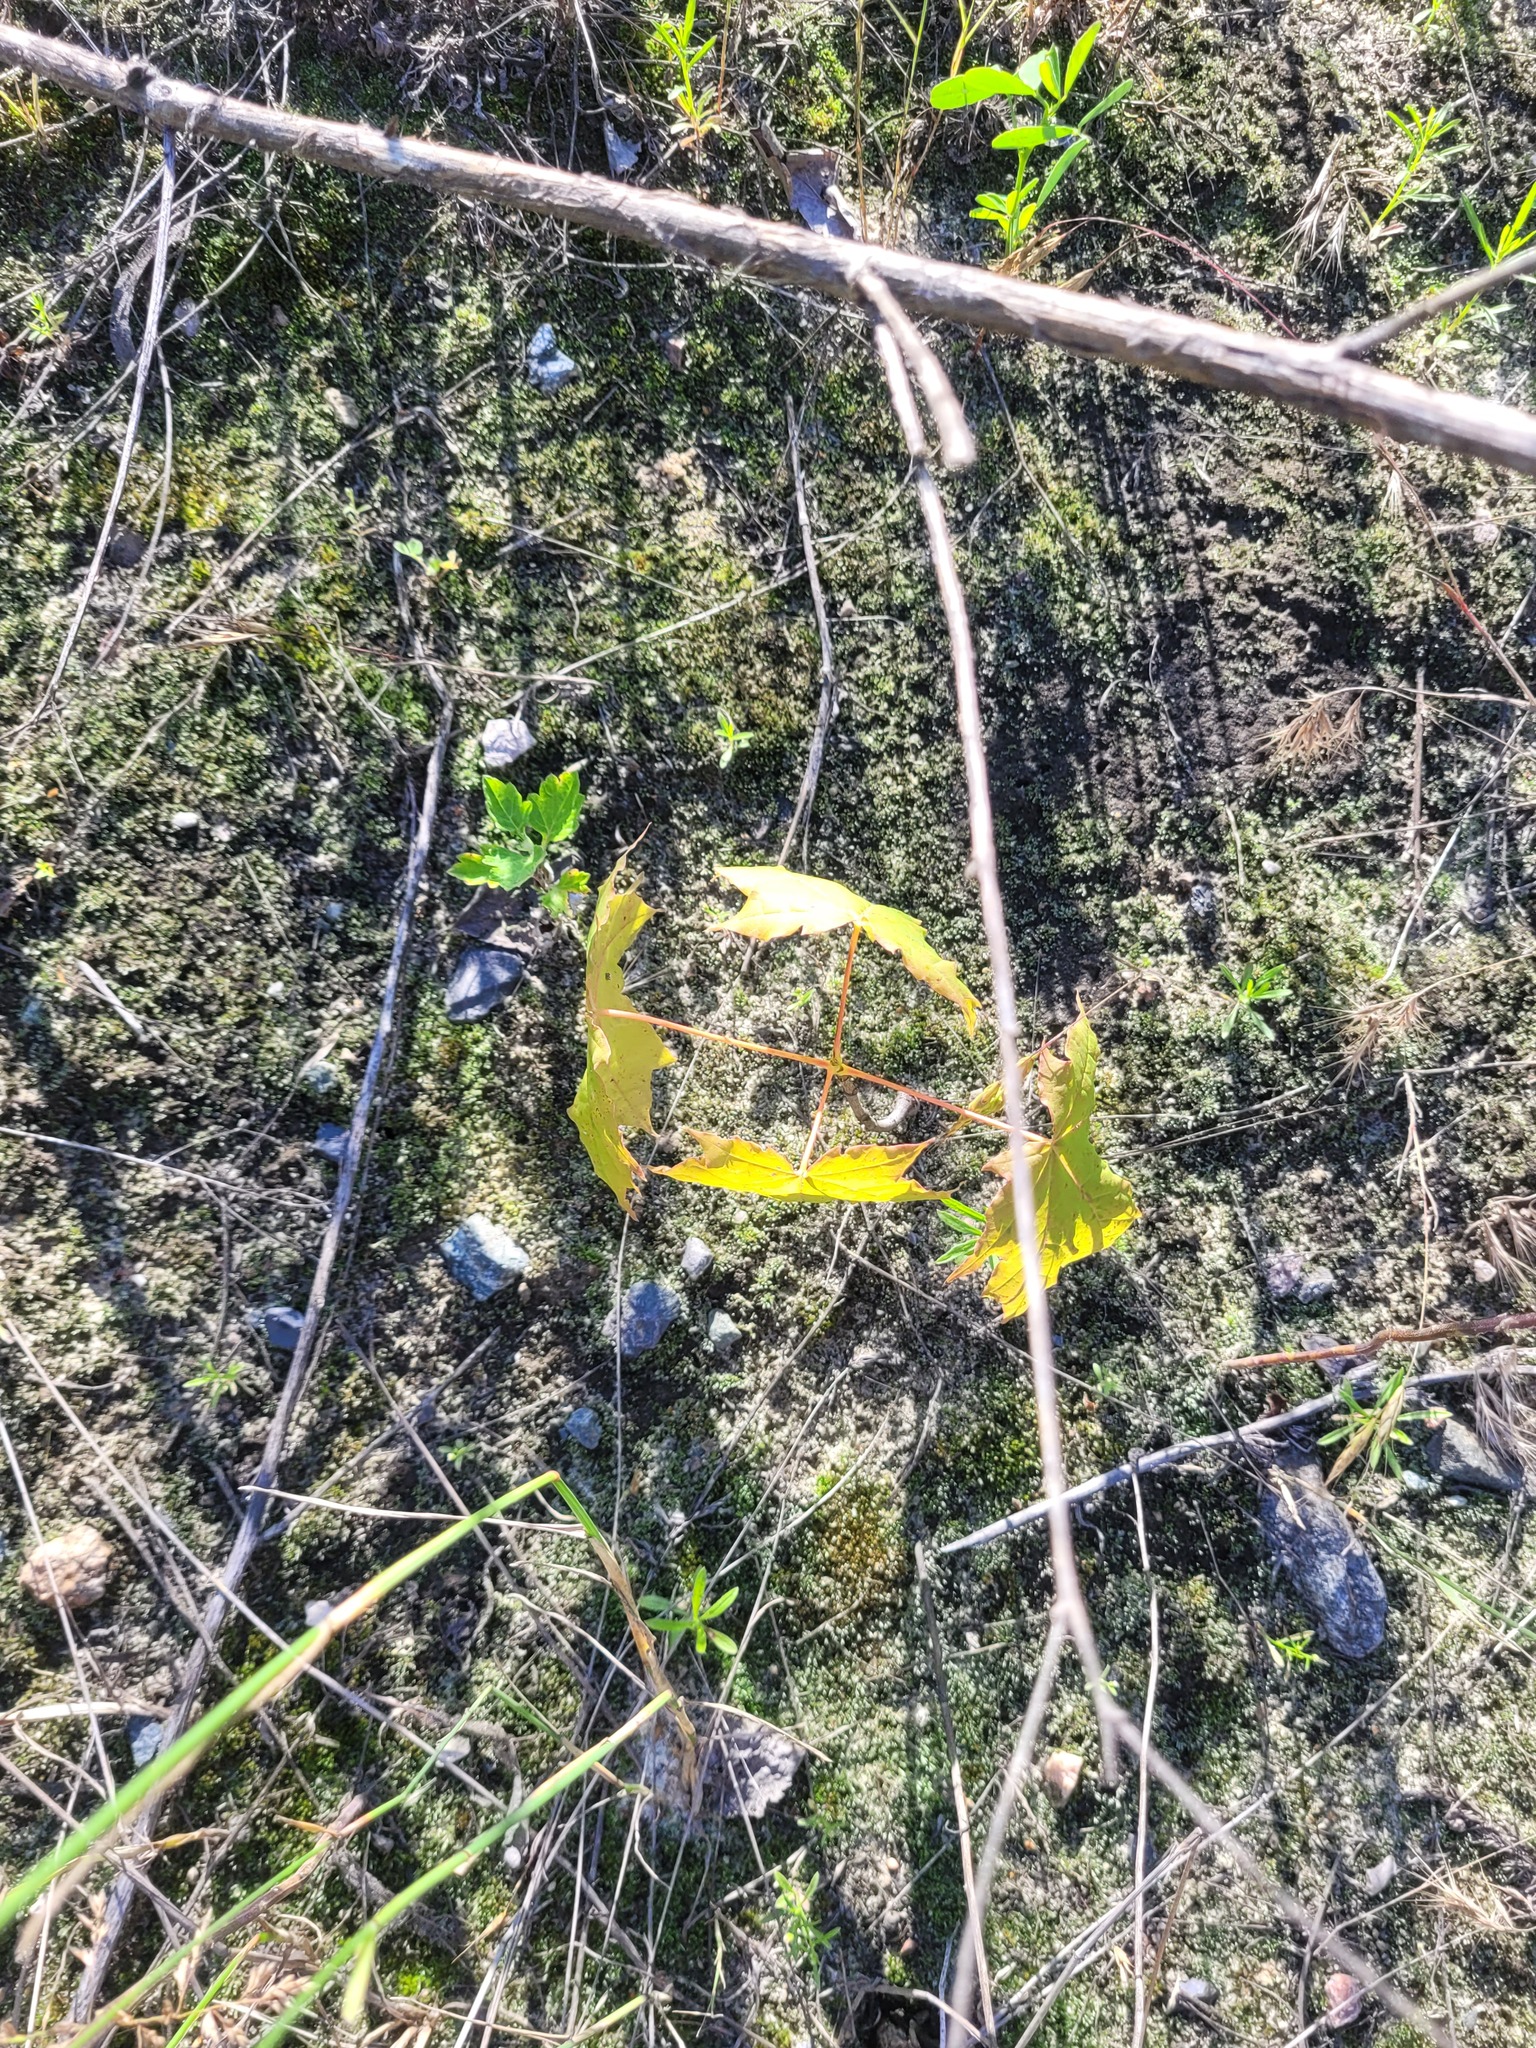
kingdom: Plantae
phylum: Tracheophyta
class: Magnoliopsida
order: Sapindales
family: Sapindaceae
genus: Acer
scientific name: Acer platanoides
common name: Norway maple
